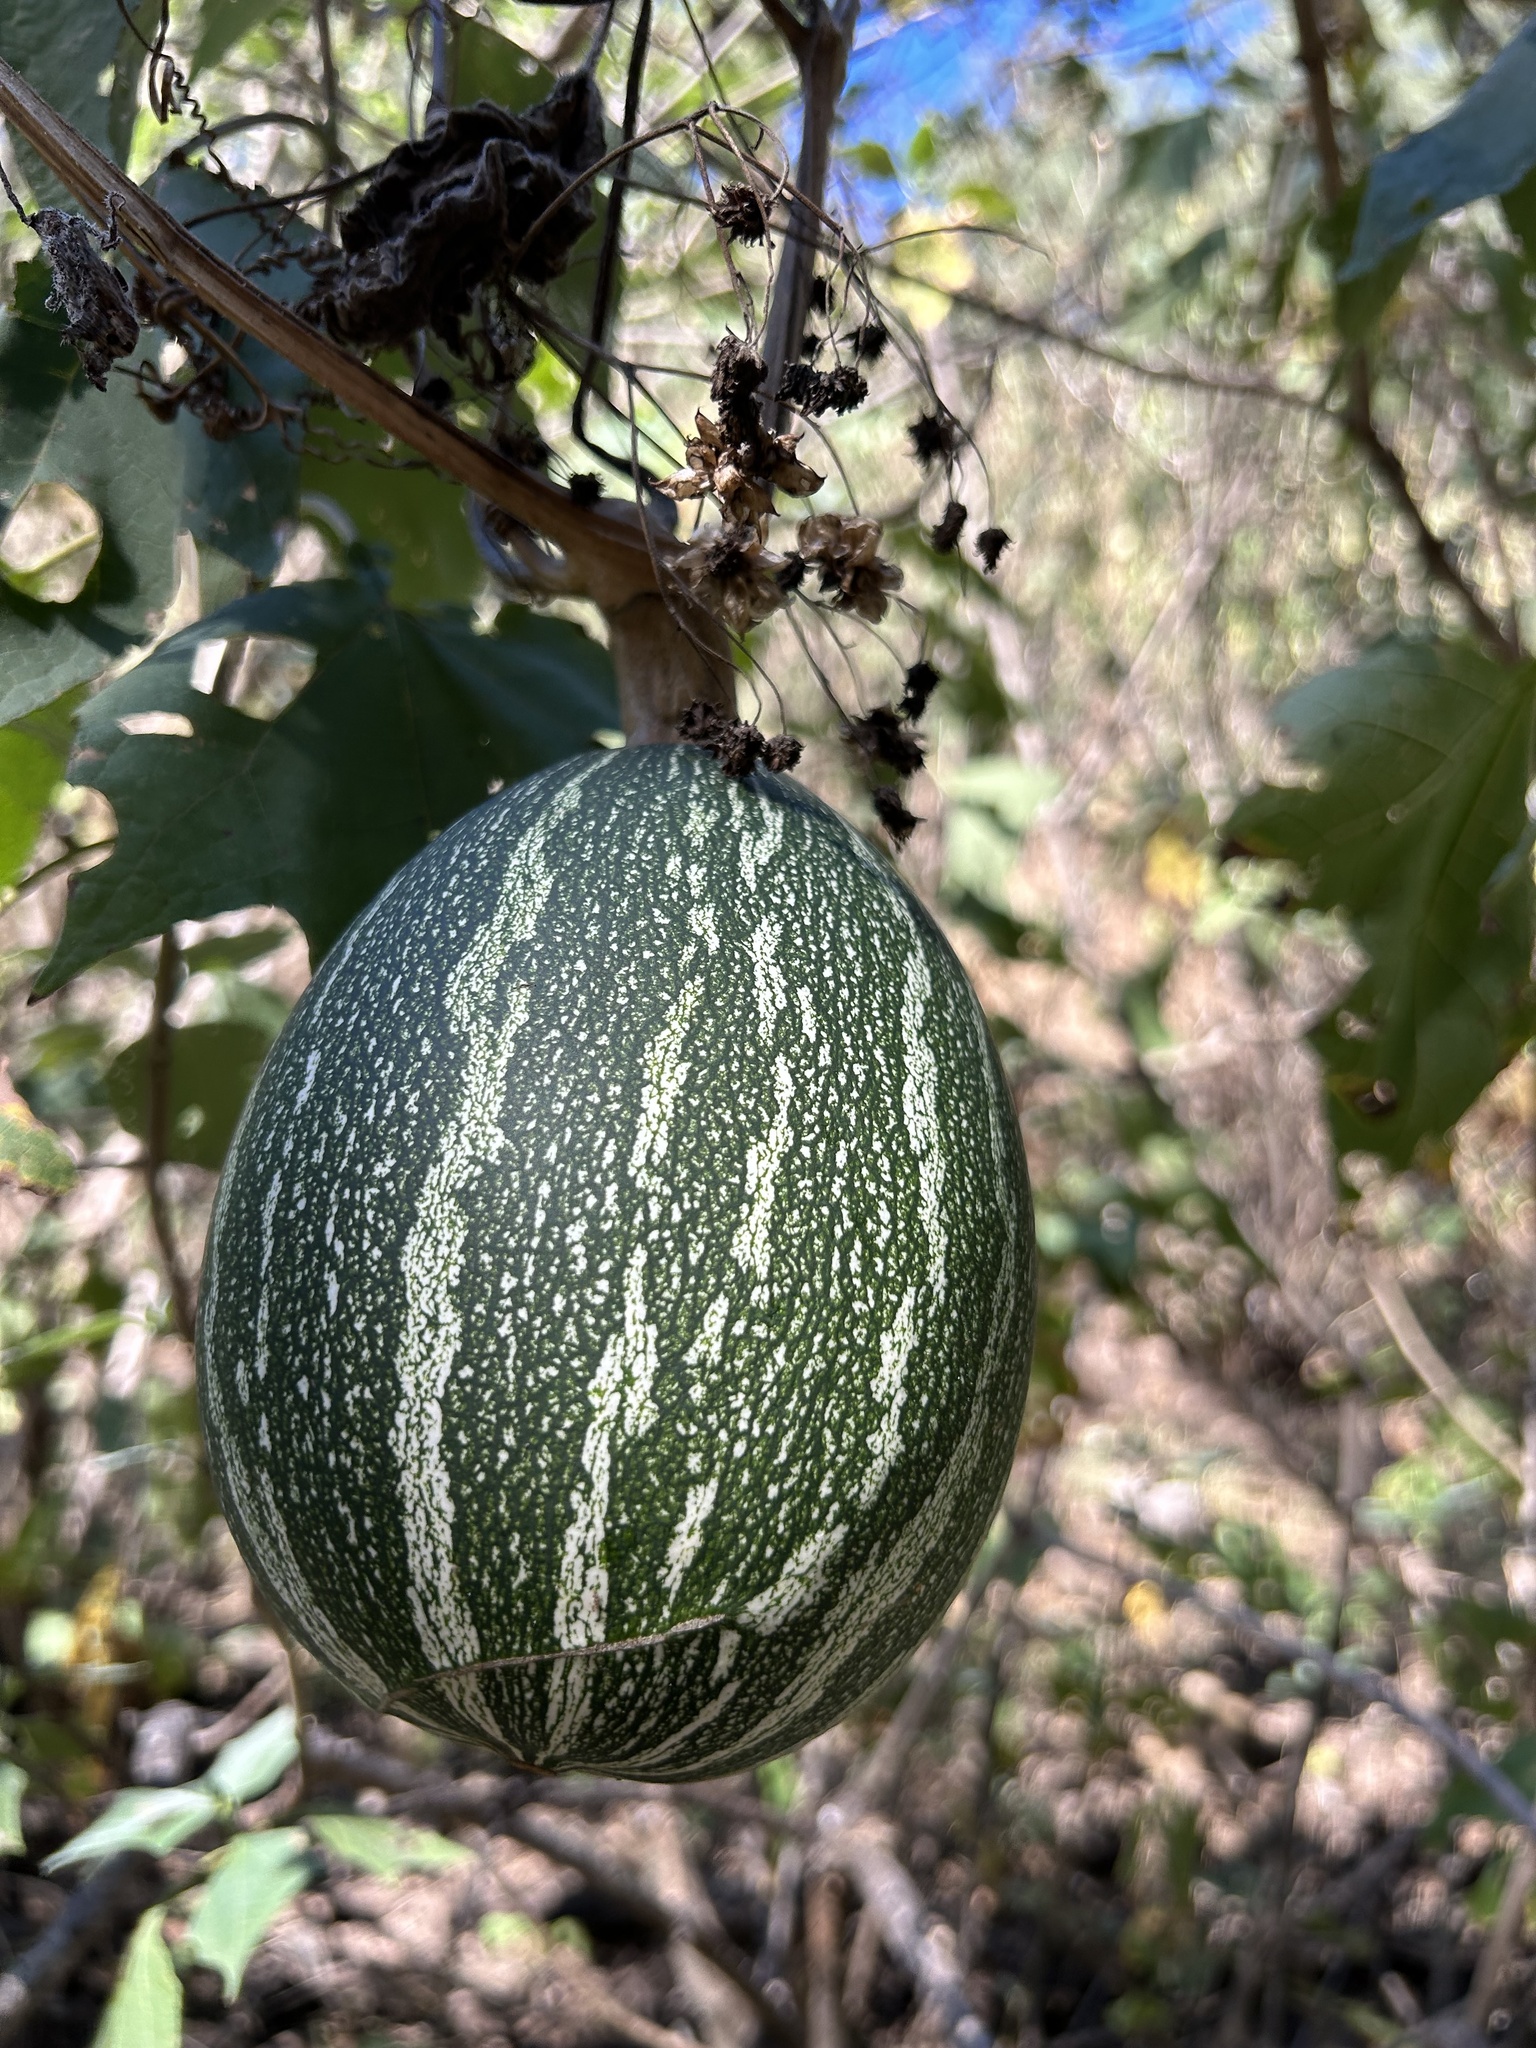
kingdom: Plantae
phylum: Tracheophyta
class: Magnoliopsida
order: Cucurbitales
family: Cucurbitaceae
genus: Cucurbita
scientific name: Cucurbita argyrosperma
